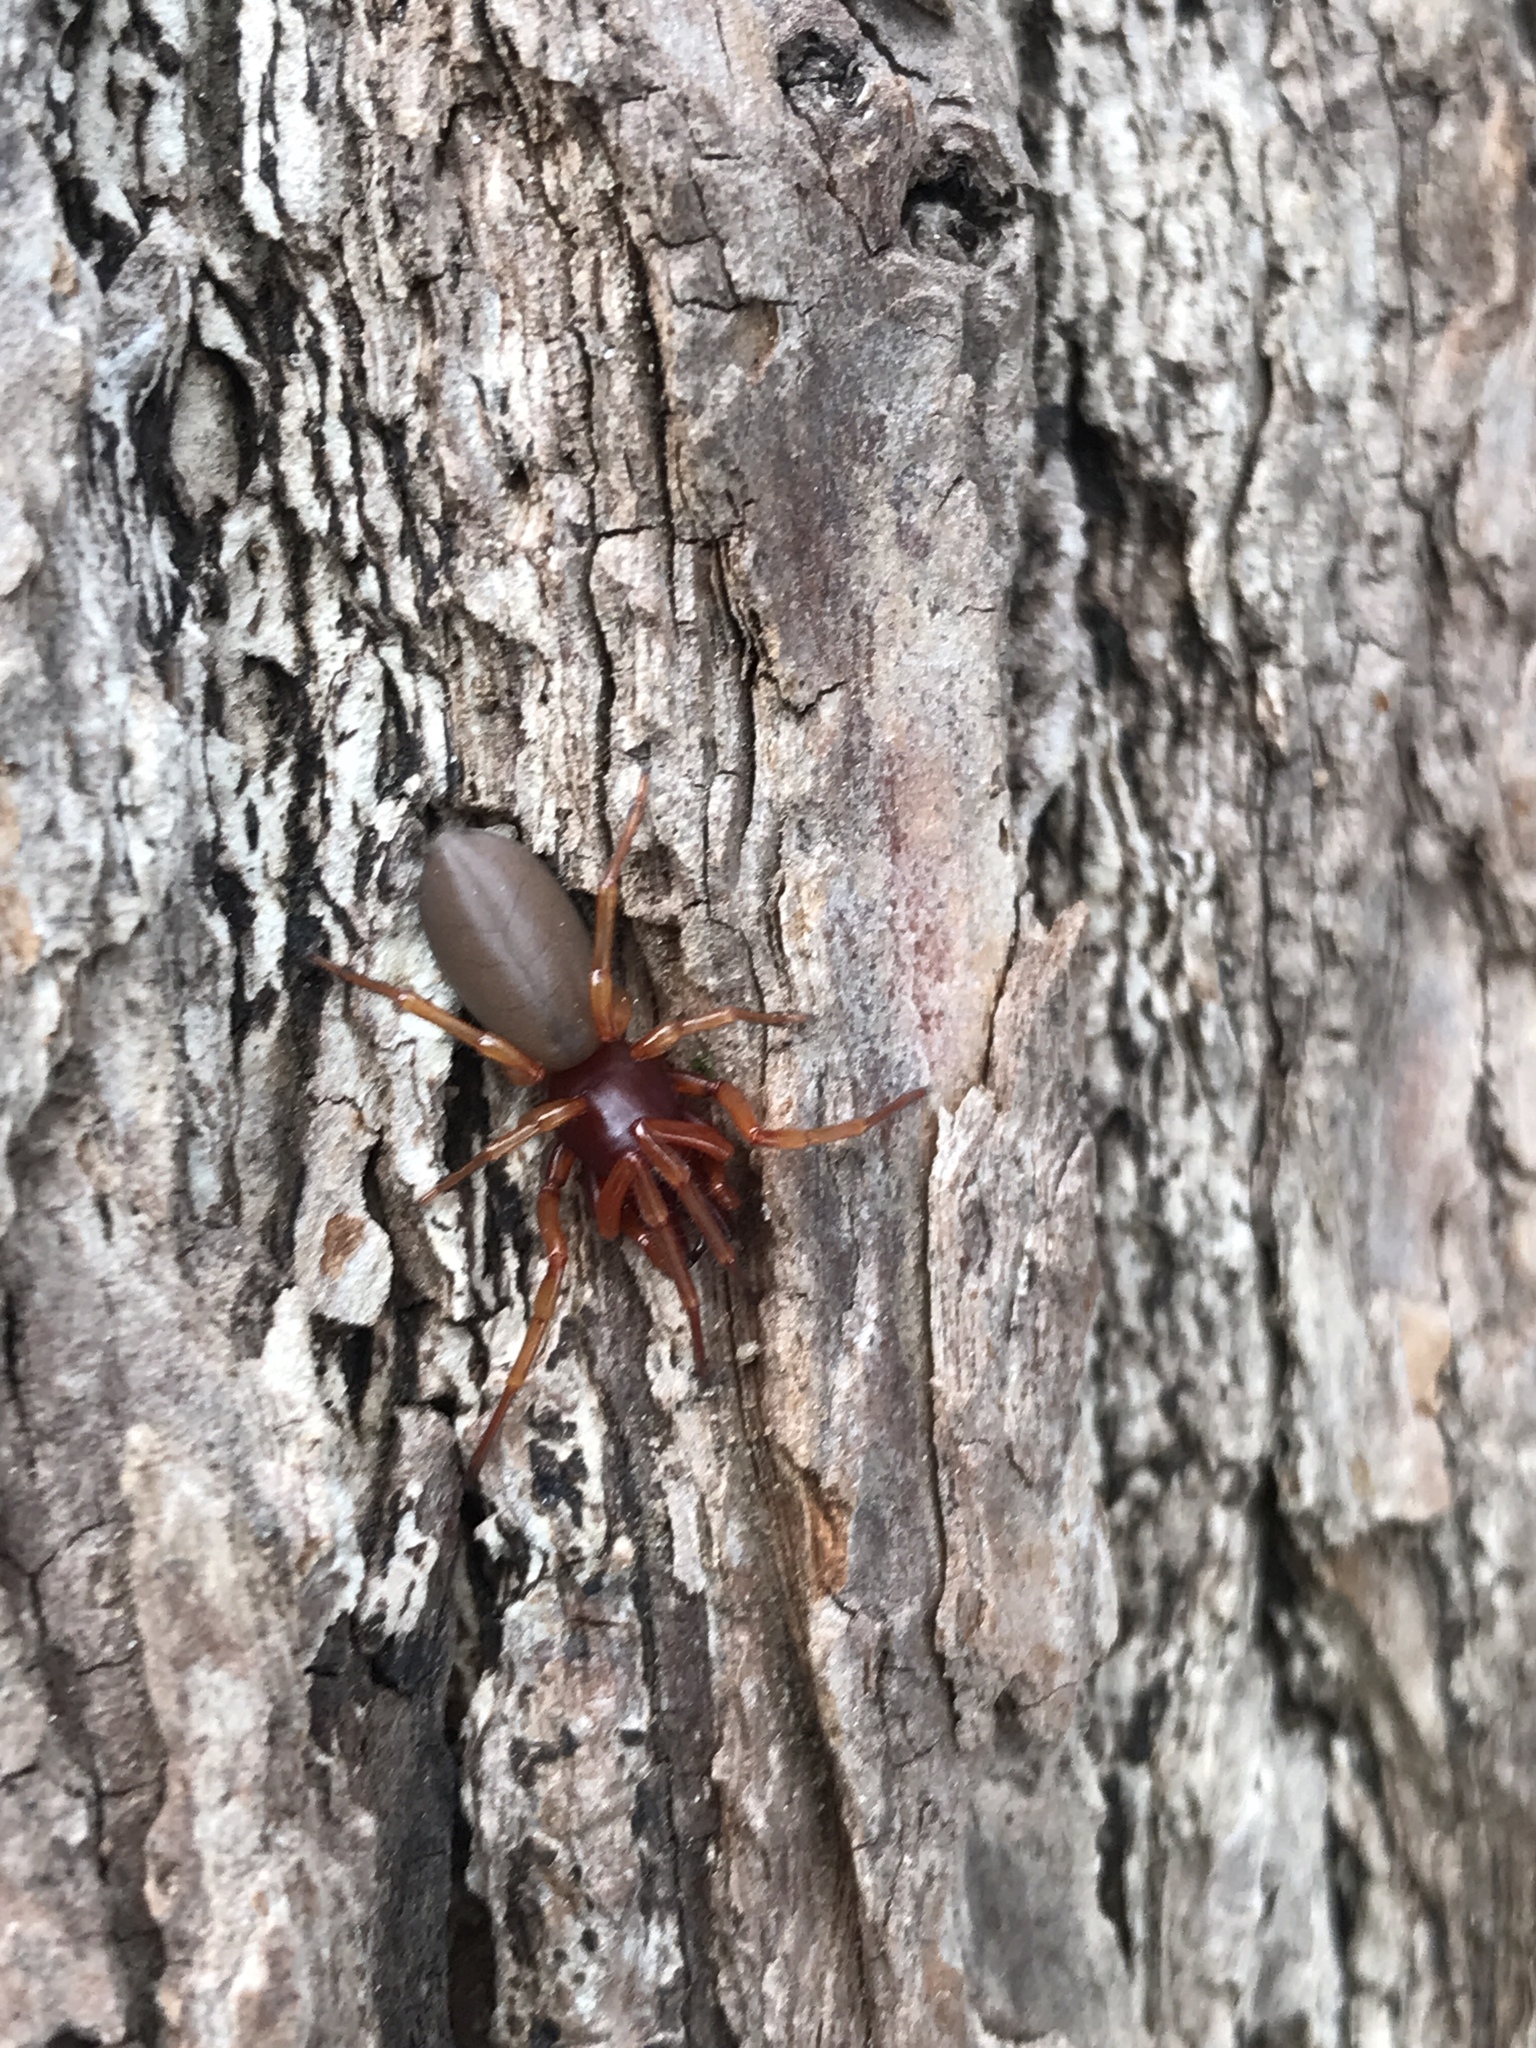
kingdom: Animalia
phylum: Arthropoda
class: Arachnida
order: Araneae
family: Dysderidae
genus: Dysdera
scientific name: Dysdera crocata
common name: Woodlouse spider
